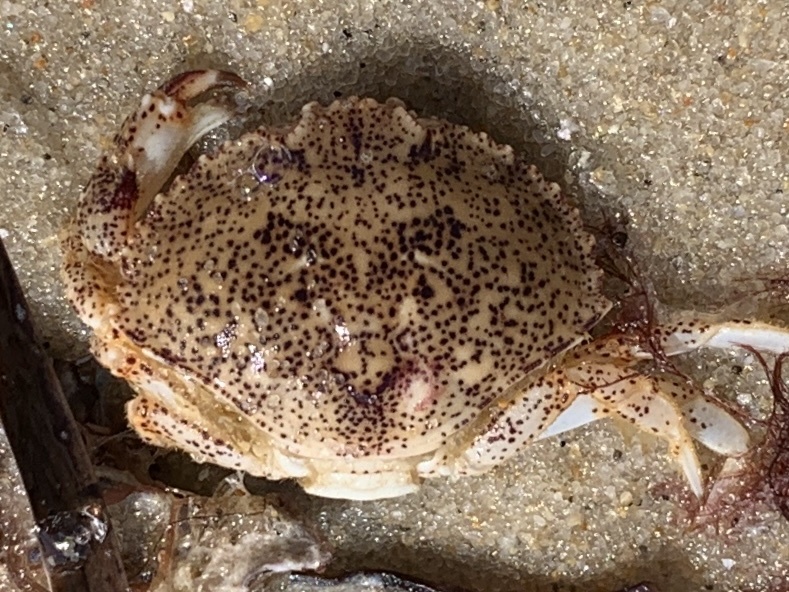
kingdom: Animalia
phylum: Arthropoda
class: Malacostraca
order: Decapoda
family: Cancridae
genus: Cancer
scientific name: Cancer irroratus
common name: Atlantic rock crab
